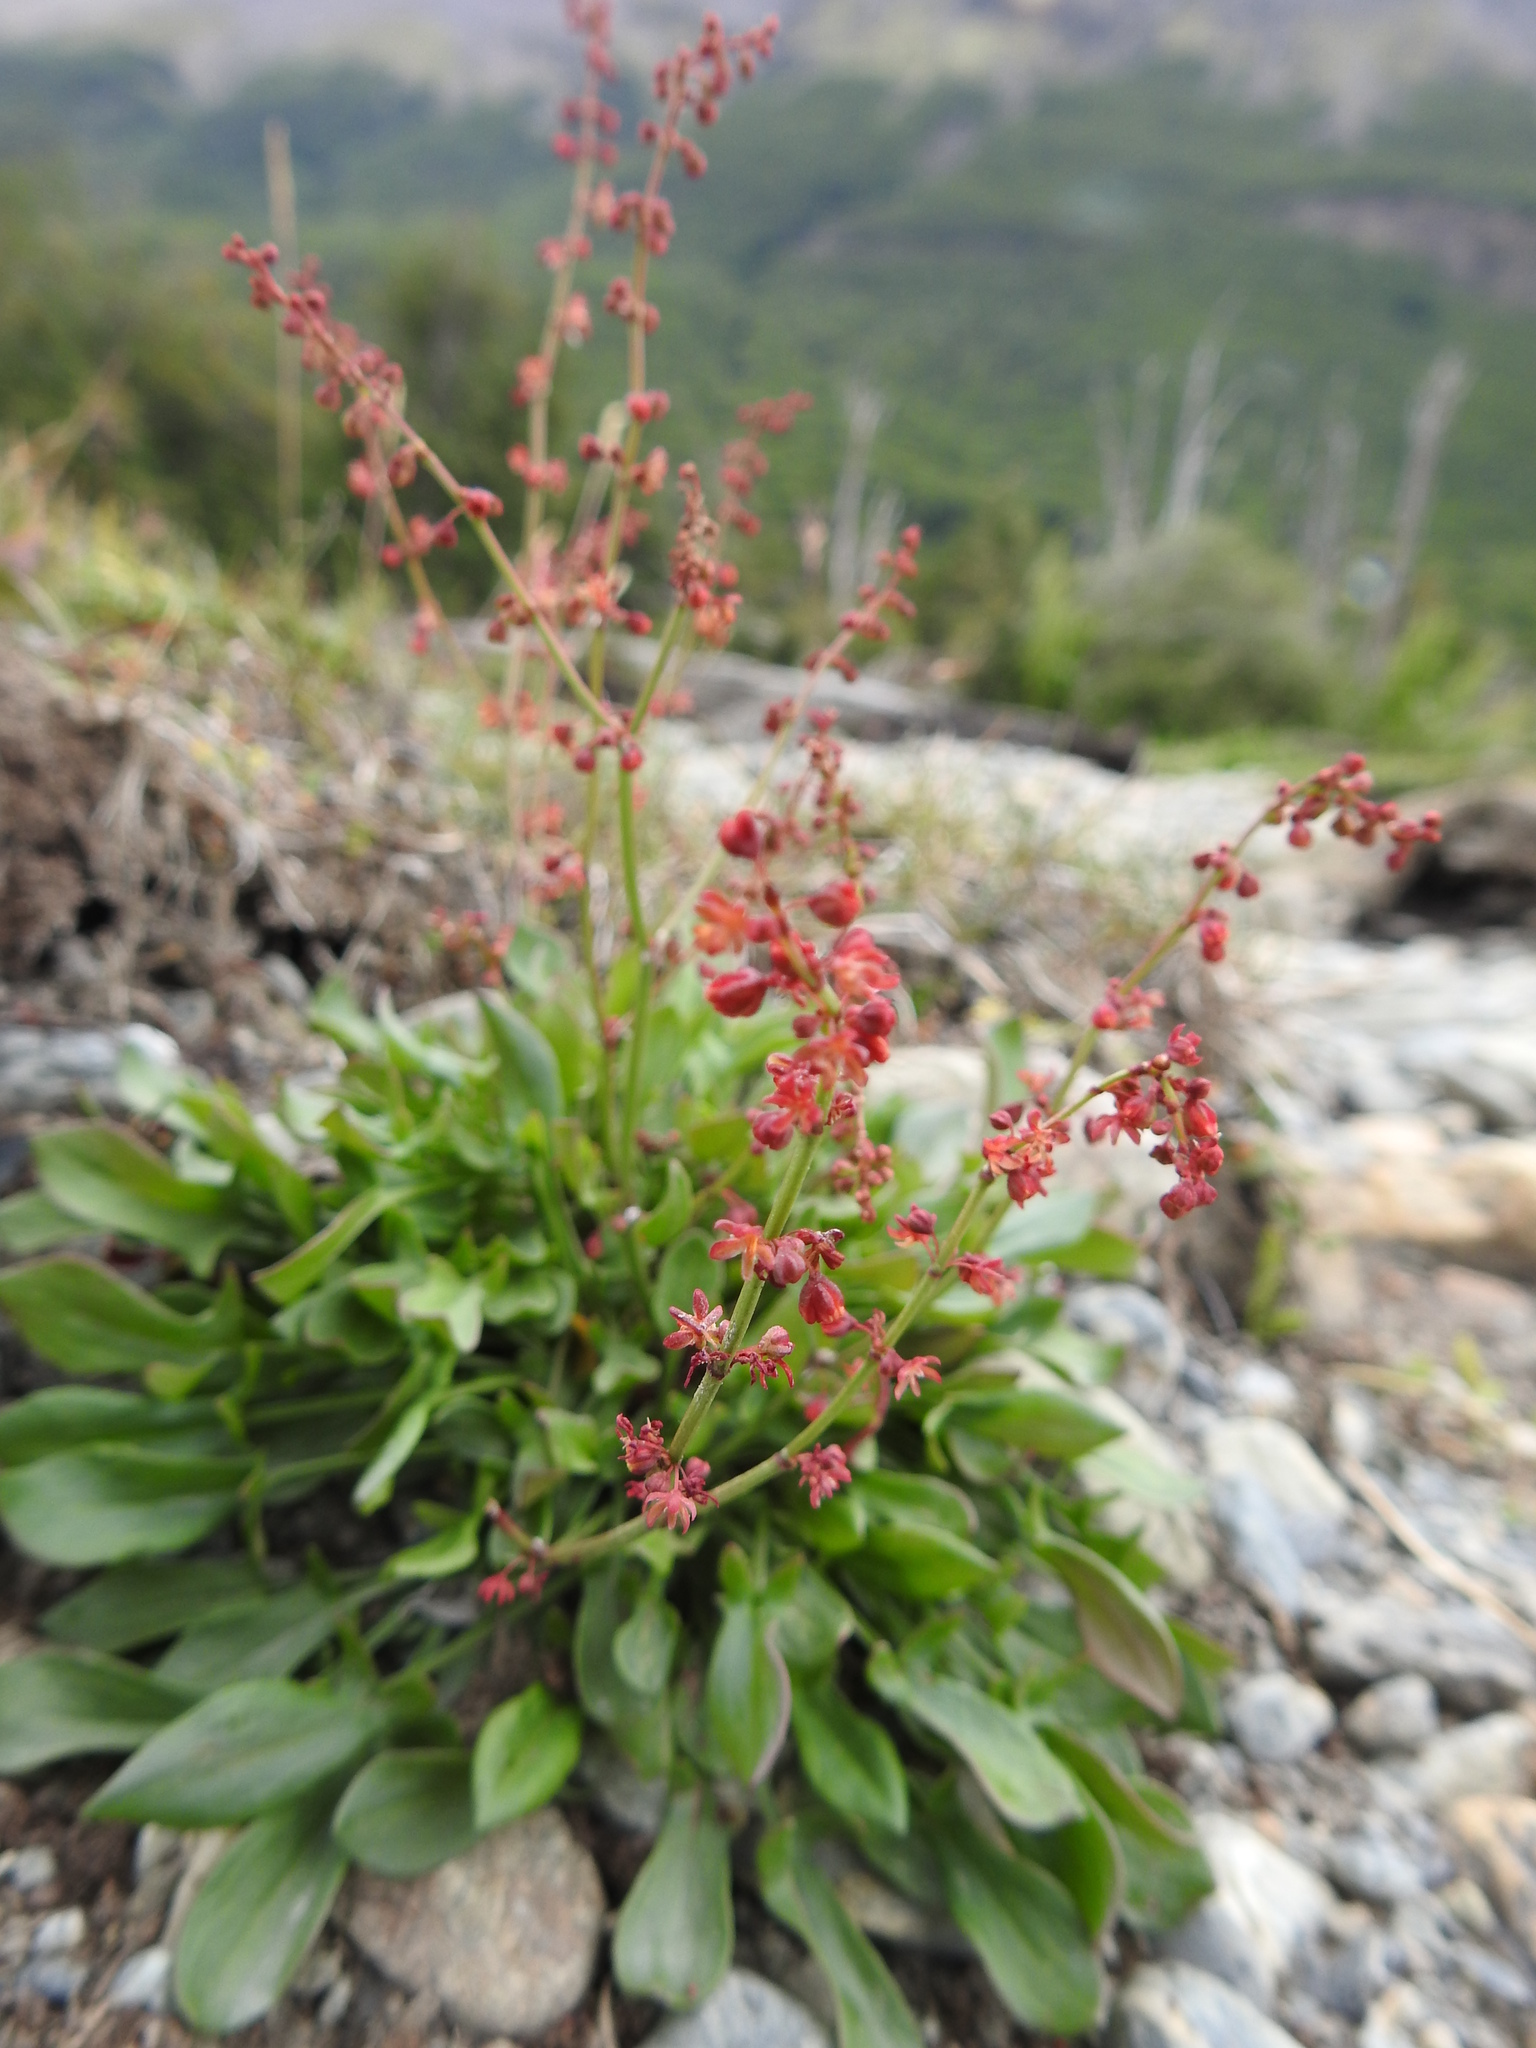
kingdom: Plantae
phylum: Tracheophyta
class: Magnoliopsida
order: Caryophyllales
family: Polygonaceae
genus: Rumex
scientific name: Rumex acetosella
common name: Common sheep sorrel
